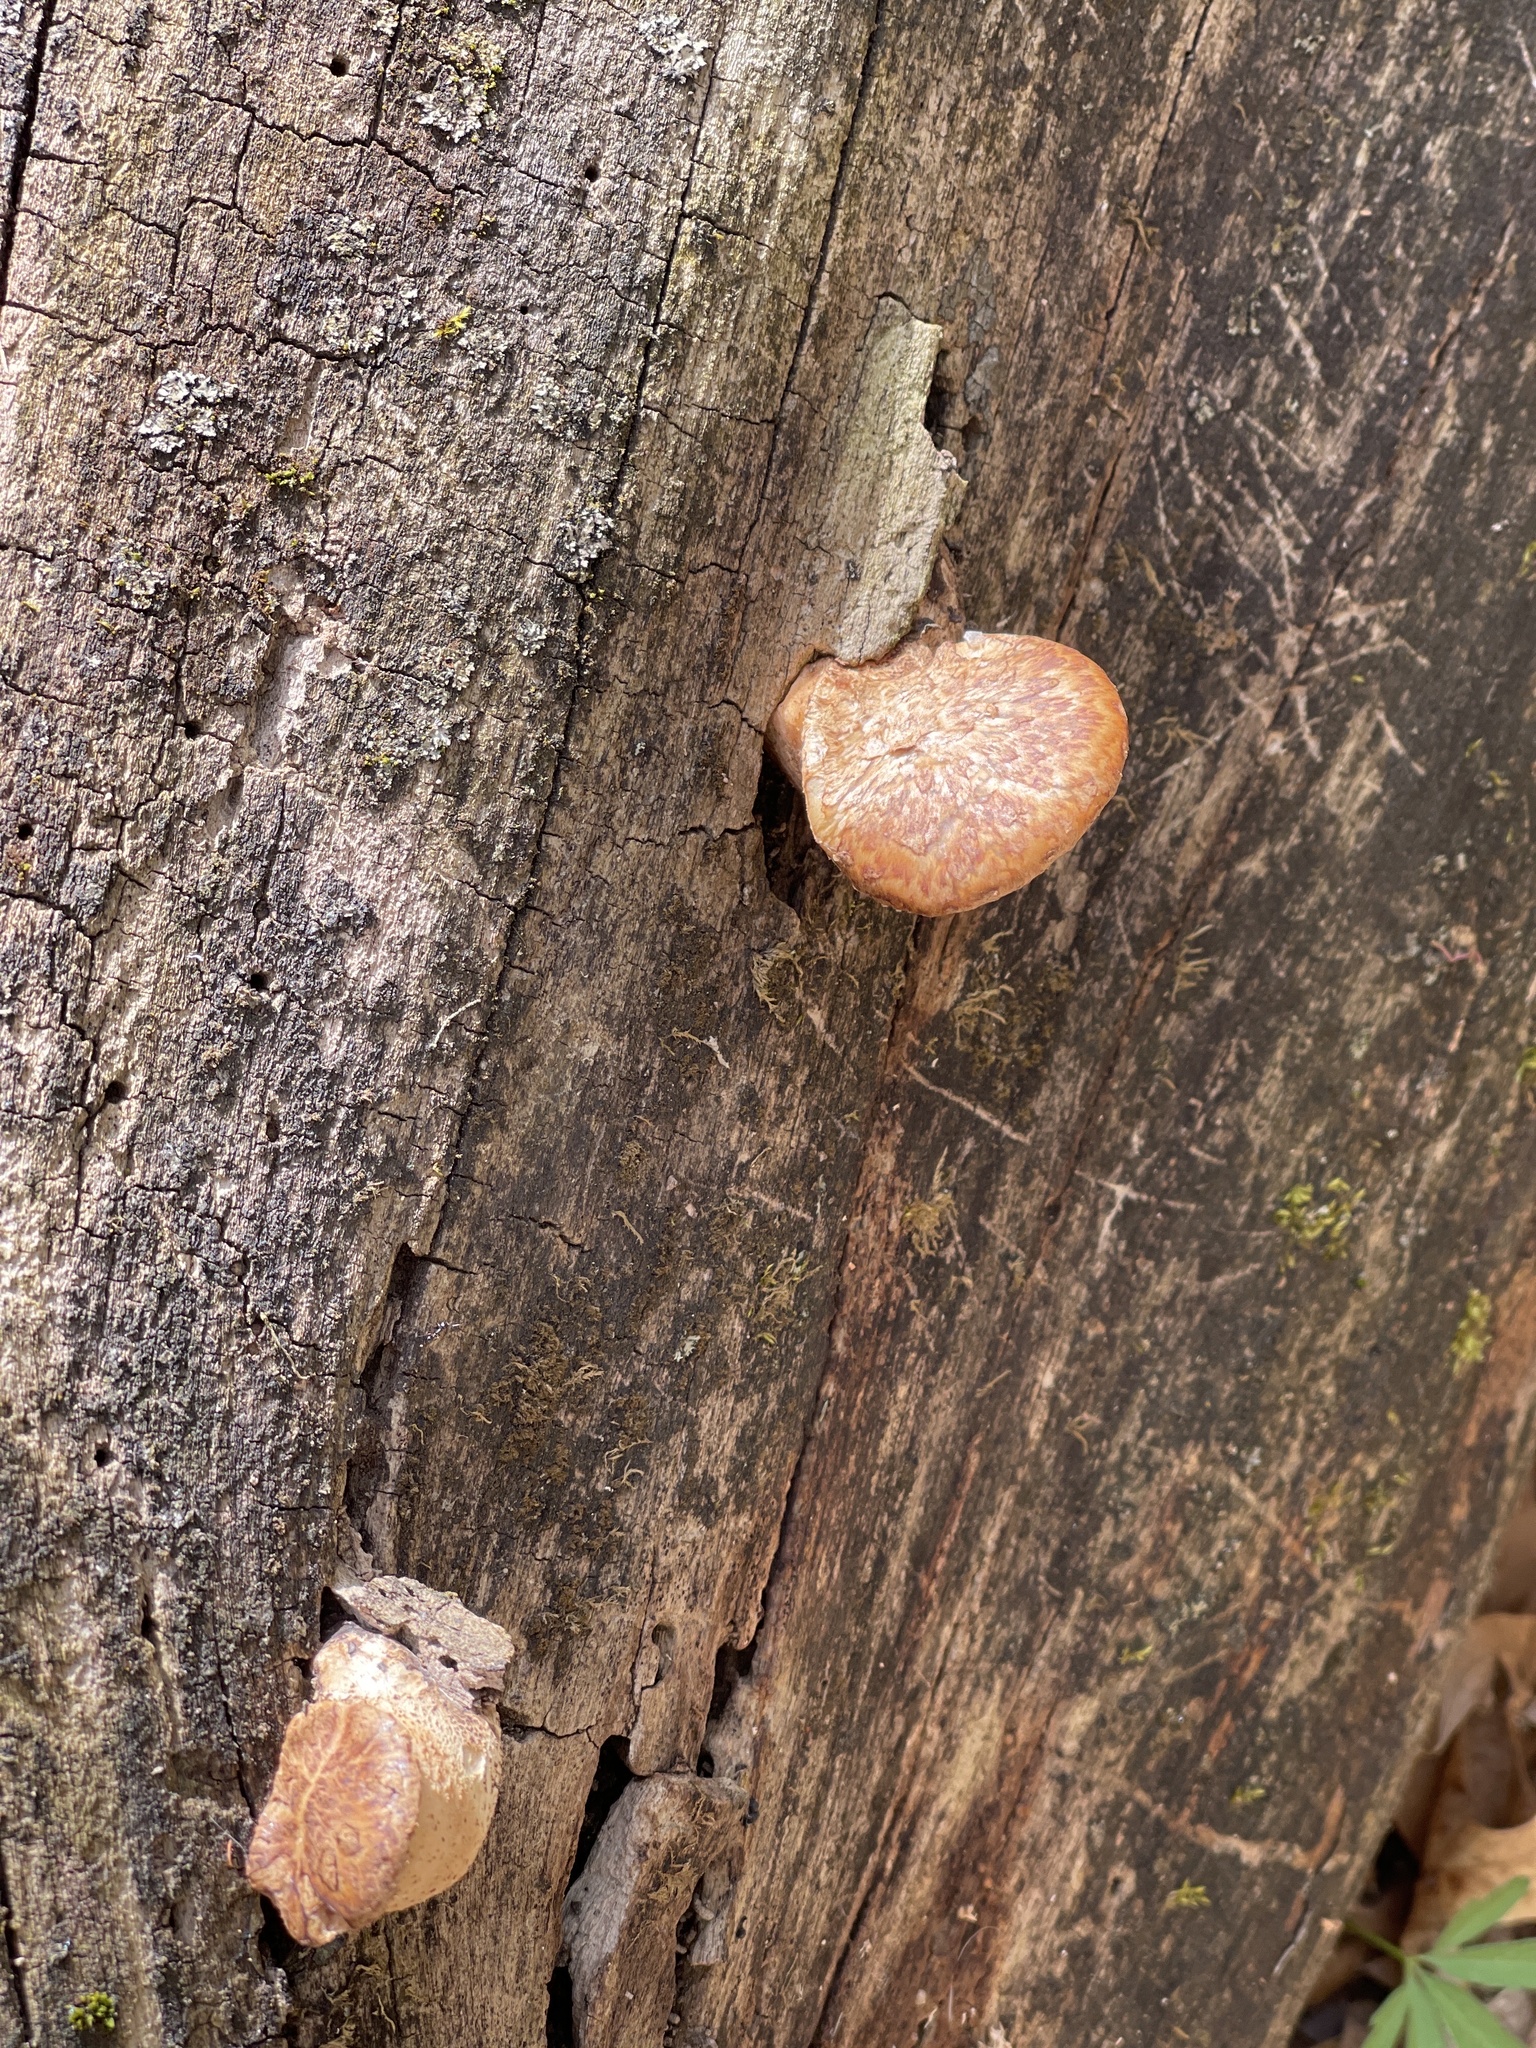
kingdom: Fungi
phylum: Basidiomycota
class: Agaricomycetes
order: Polyporales
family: Polyporaceae
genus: Cerioporus
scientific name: Cerioporus squamosus
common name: Dryad's saddle
